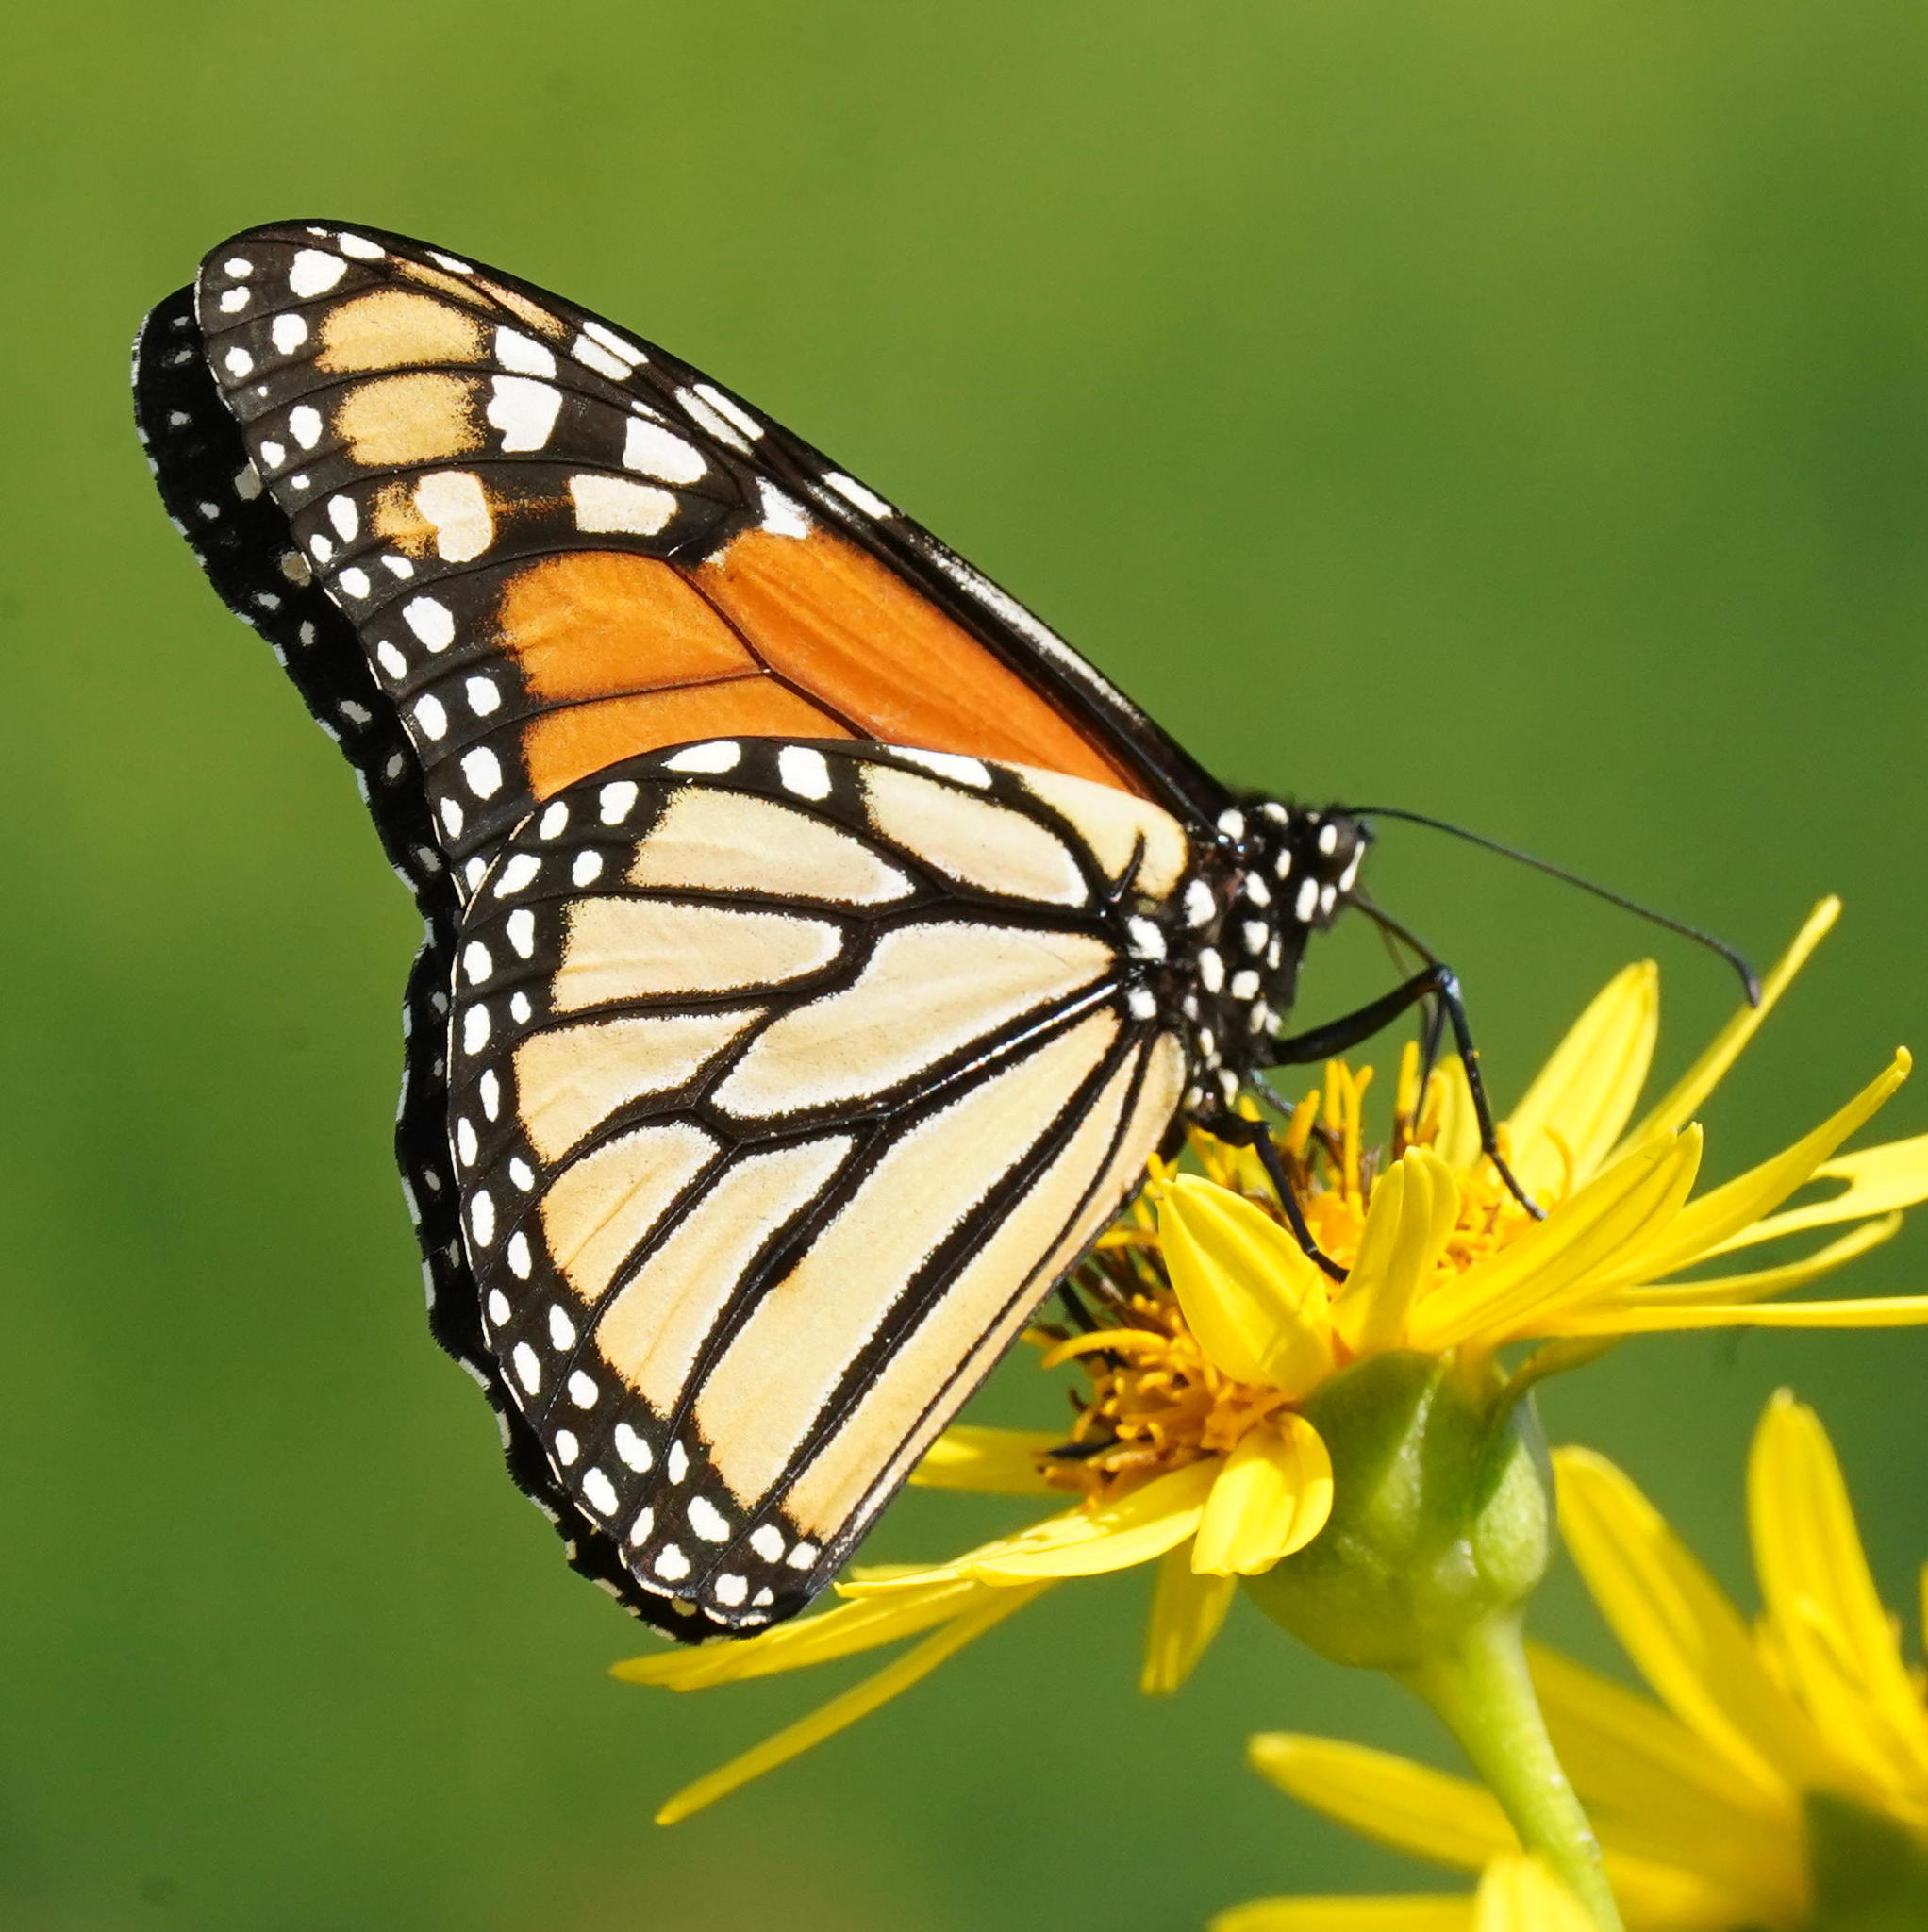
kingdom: Animalia
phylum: Arthropoda
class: Insecta
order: Lepidoptera
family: Nymphalidae
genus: Danaus
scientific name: Danaus plexippus
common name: Monarch
